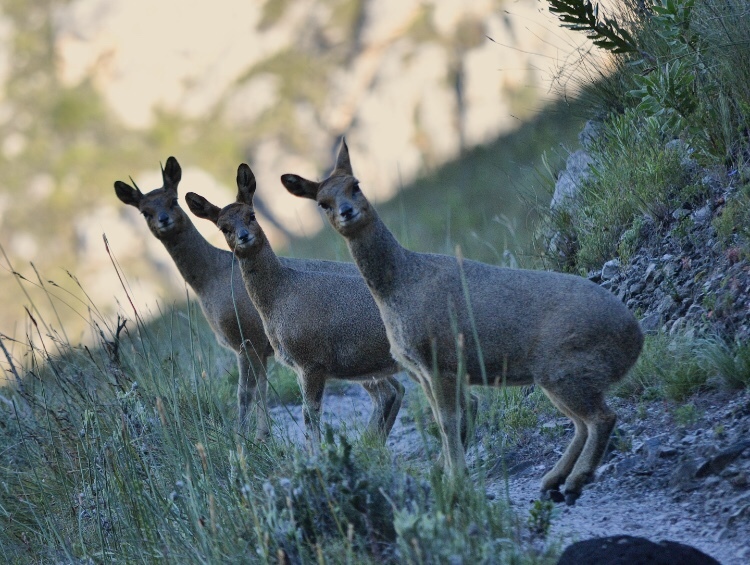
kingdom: Animalia
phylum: Chordata
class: Mammalia
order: Artiodactyla
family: Bovidae
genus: Oreotragus
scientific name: Oreotragus oreotragus
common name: Klipspringer
